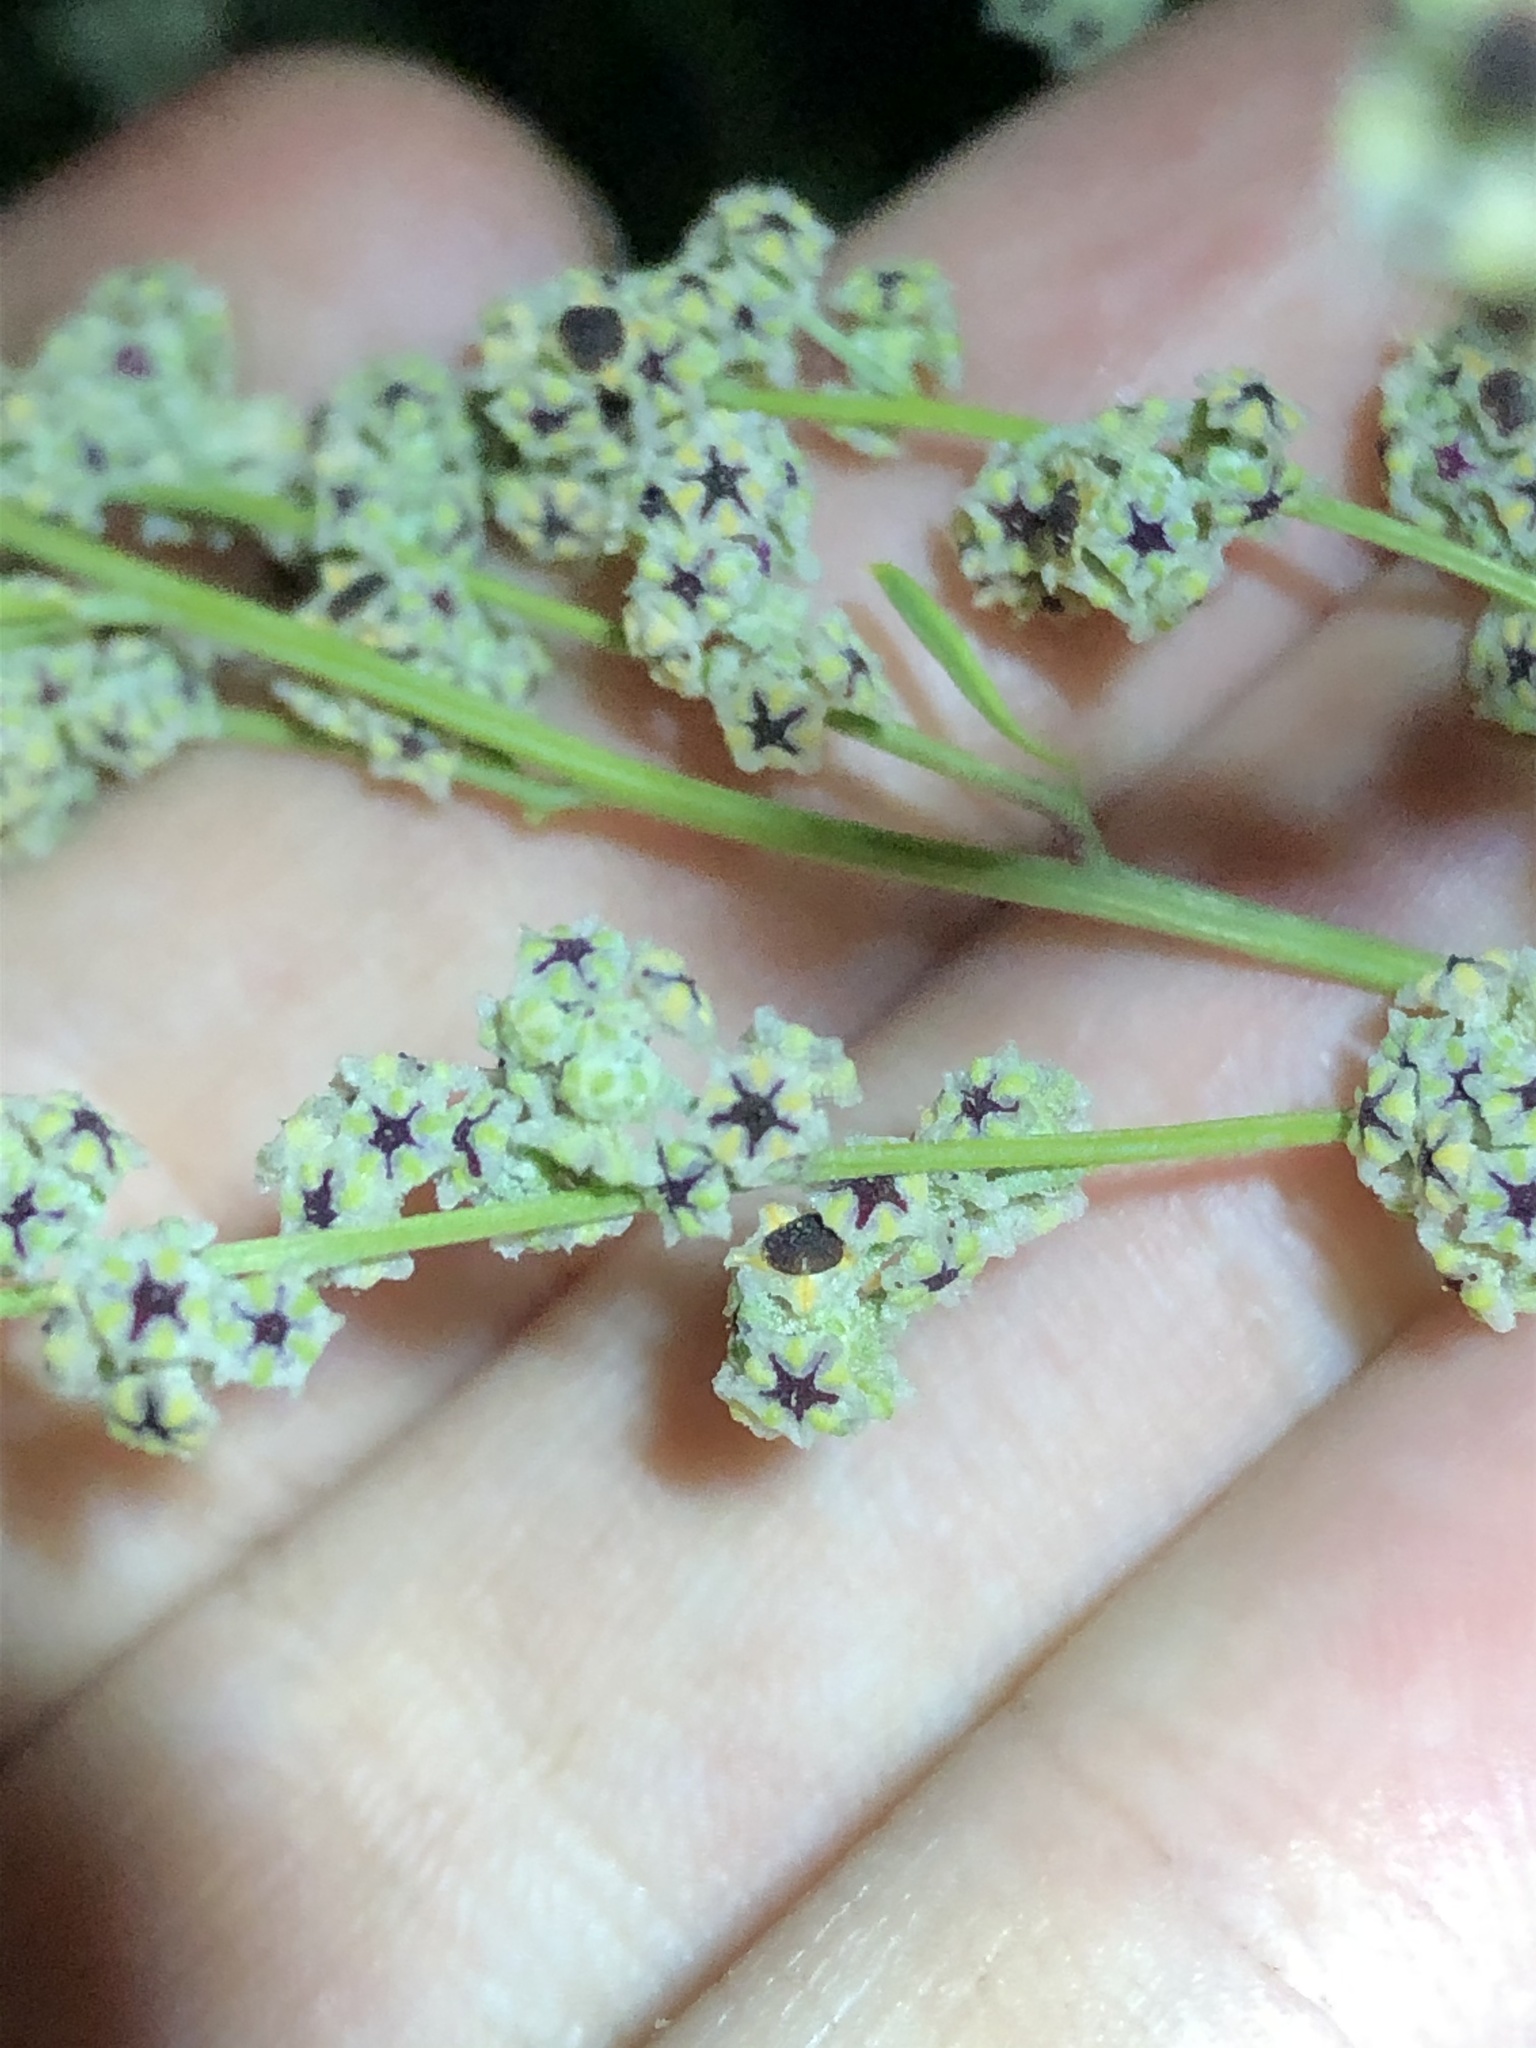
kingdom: Plantae
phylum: Tracheophyta
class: Magnoliopsida
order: Caryophyllales
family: Amaranthaceae
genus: Chenopodium
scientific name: Chenopodium cycloides
